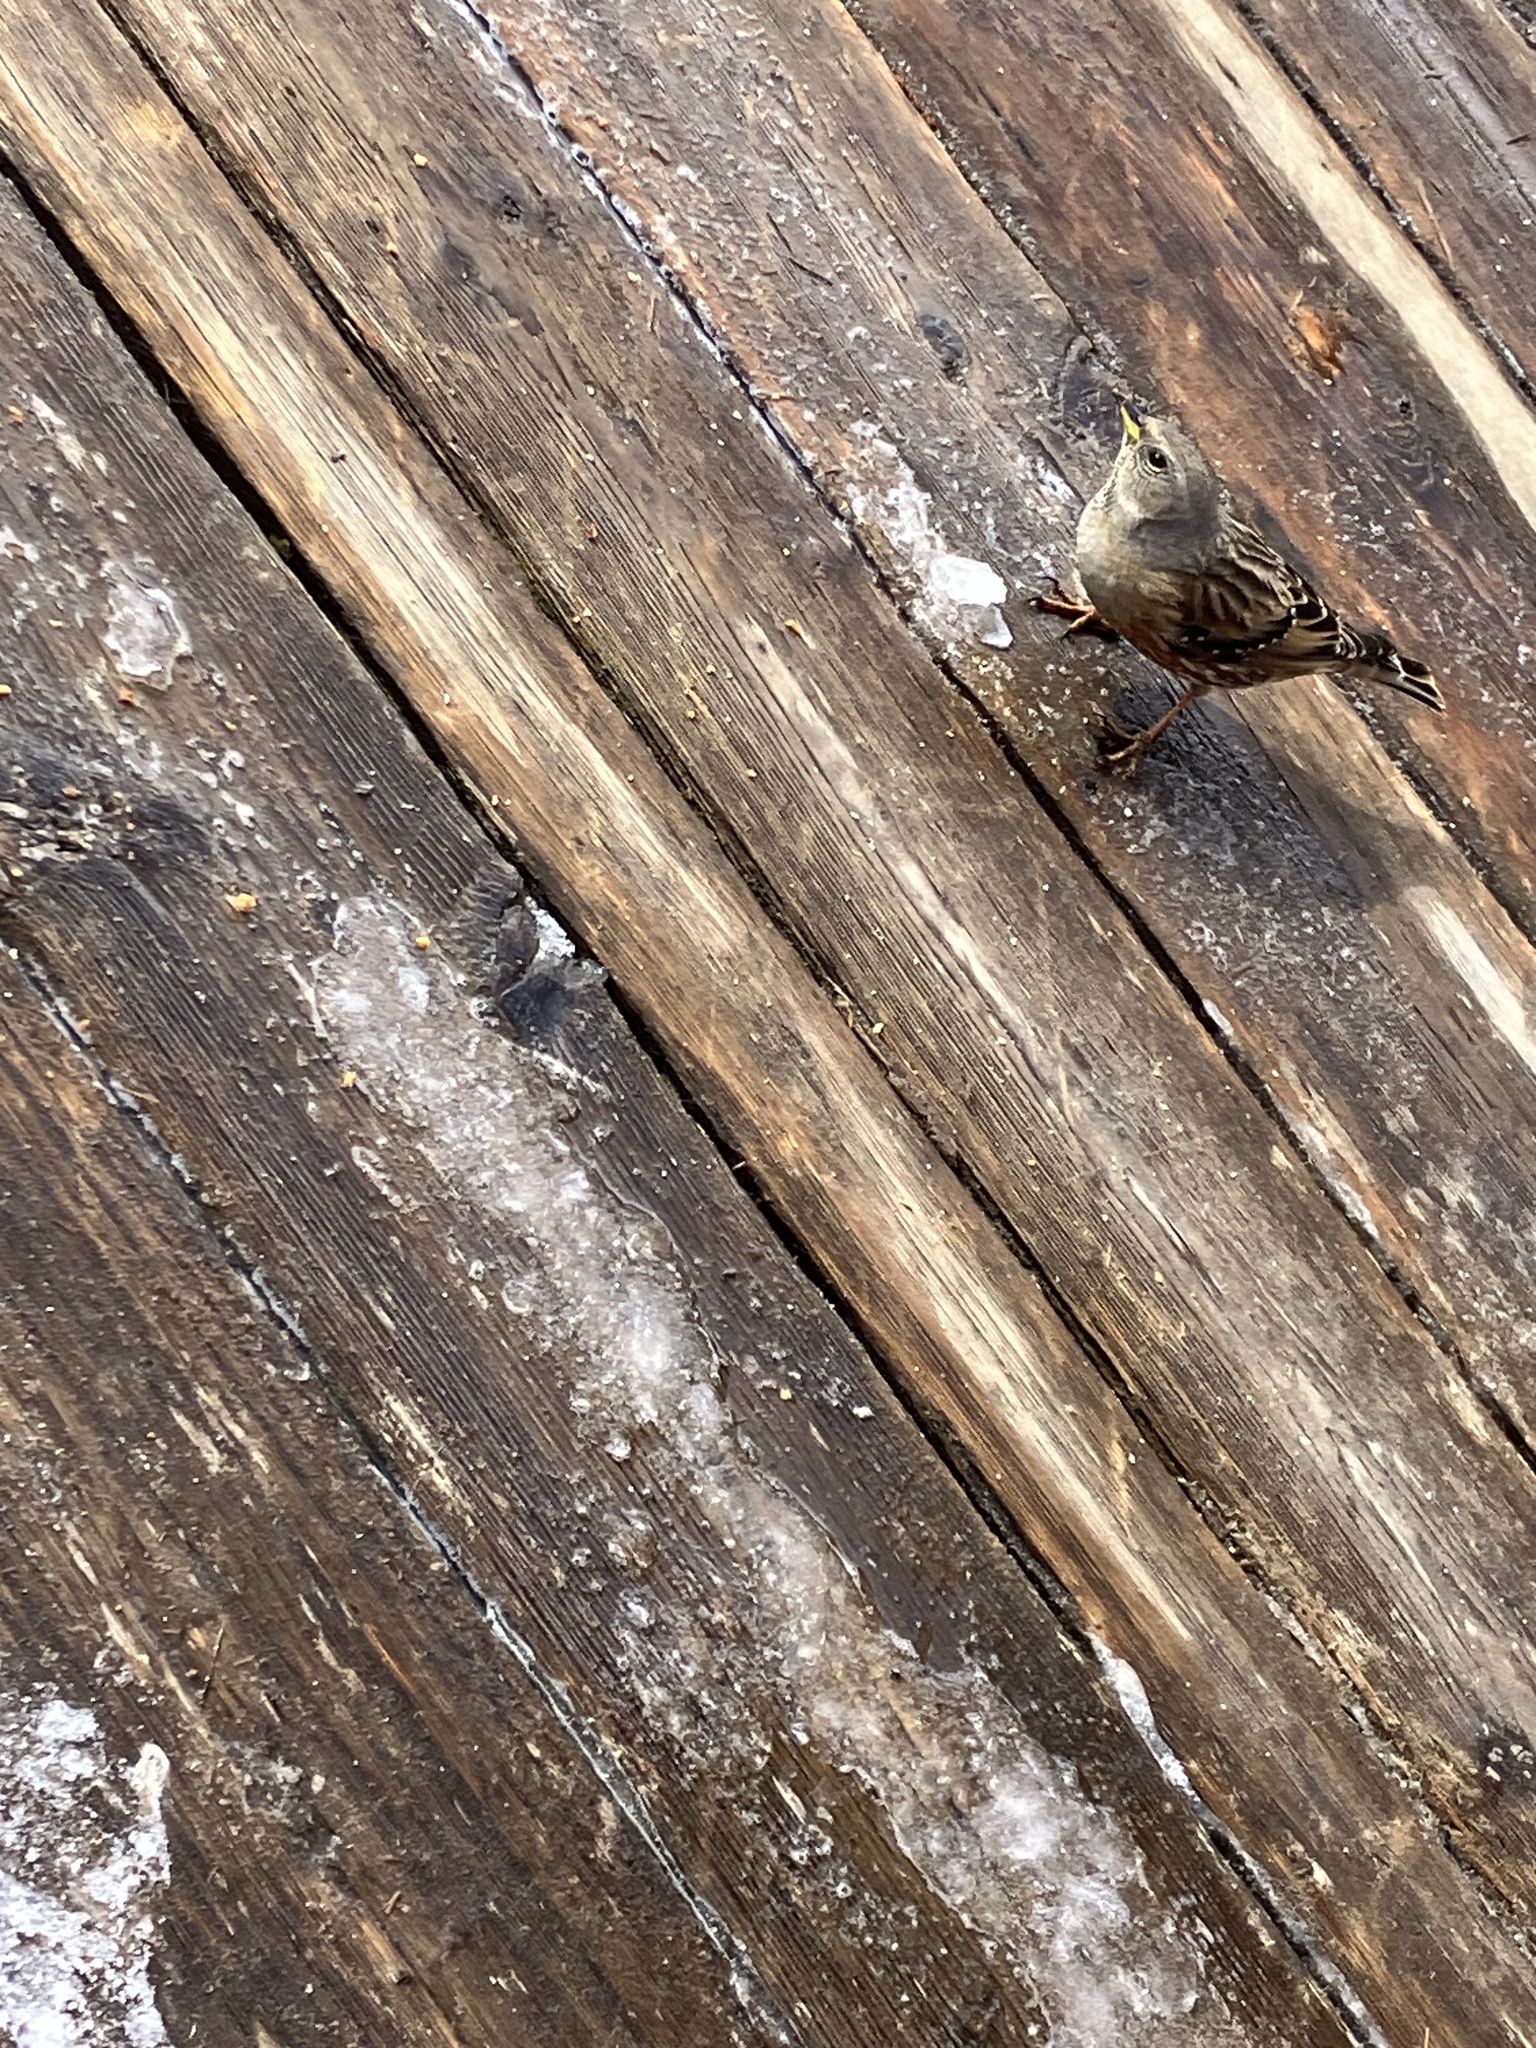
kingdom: Animalia
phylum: Chordata
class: Aves
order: Passeriformes
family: Prunellidae
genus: Prunella
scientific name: Prunella collaris
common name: Alpine accentor
